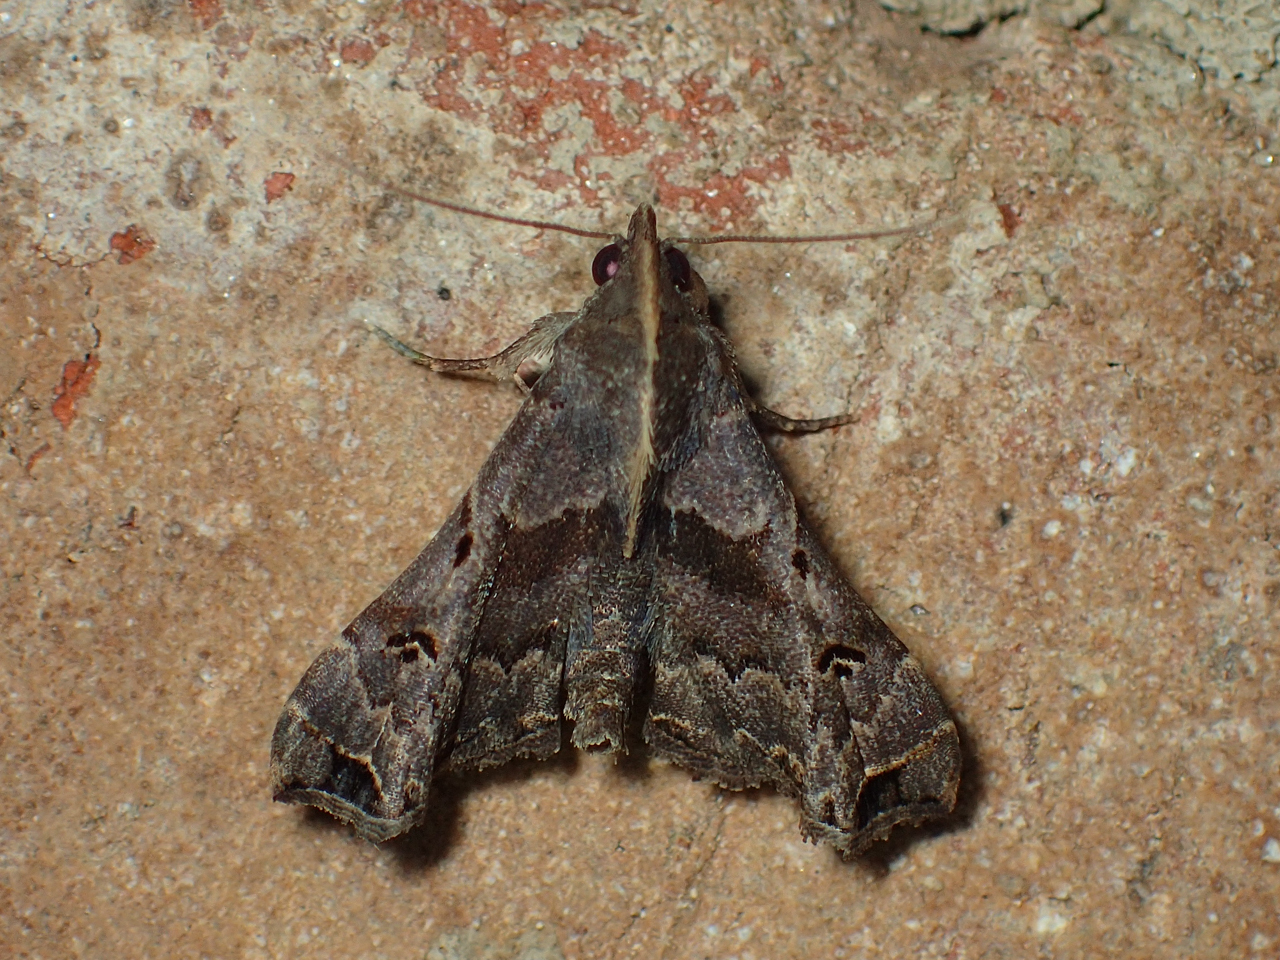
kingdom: Animalia
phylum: Arthropoda
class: Insecta
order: Lepidoptera
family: Erebidae
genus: Palthis
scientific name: Palthis asopialis
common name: Faint-spotted palthis moth
